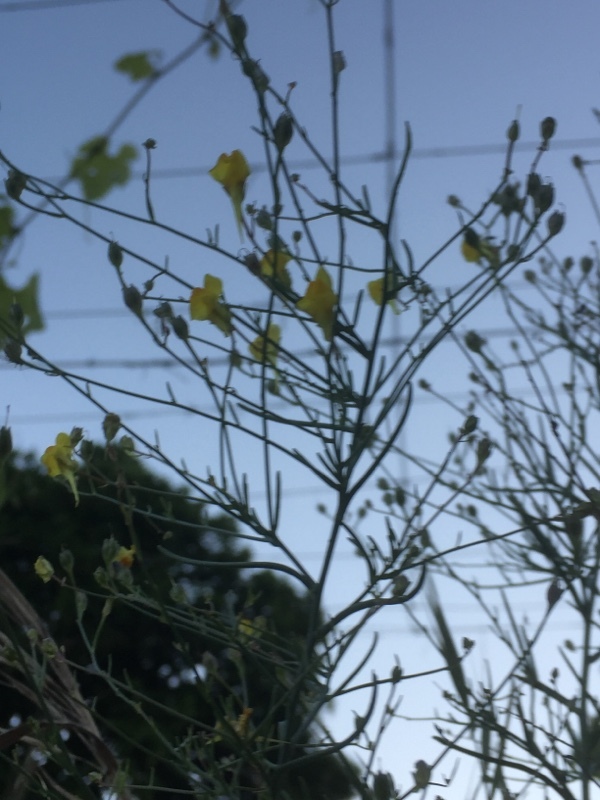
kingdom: Plantae
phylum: Tracheophyta
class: Magnoliopsida
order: Lamiales
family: Plantaginaceae
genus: Linaria
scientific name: Linaria spartea
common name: Ballast toadflax
